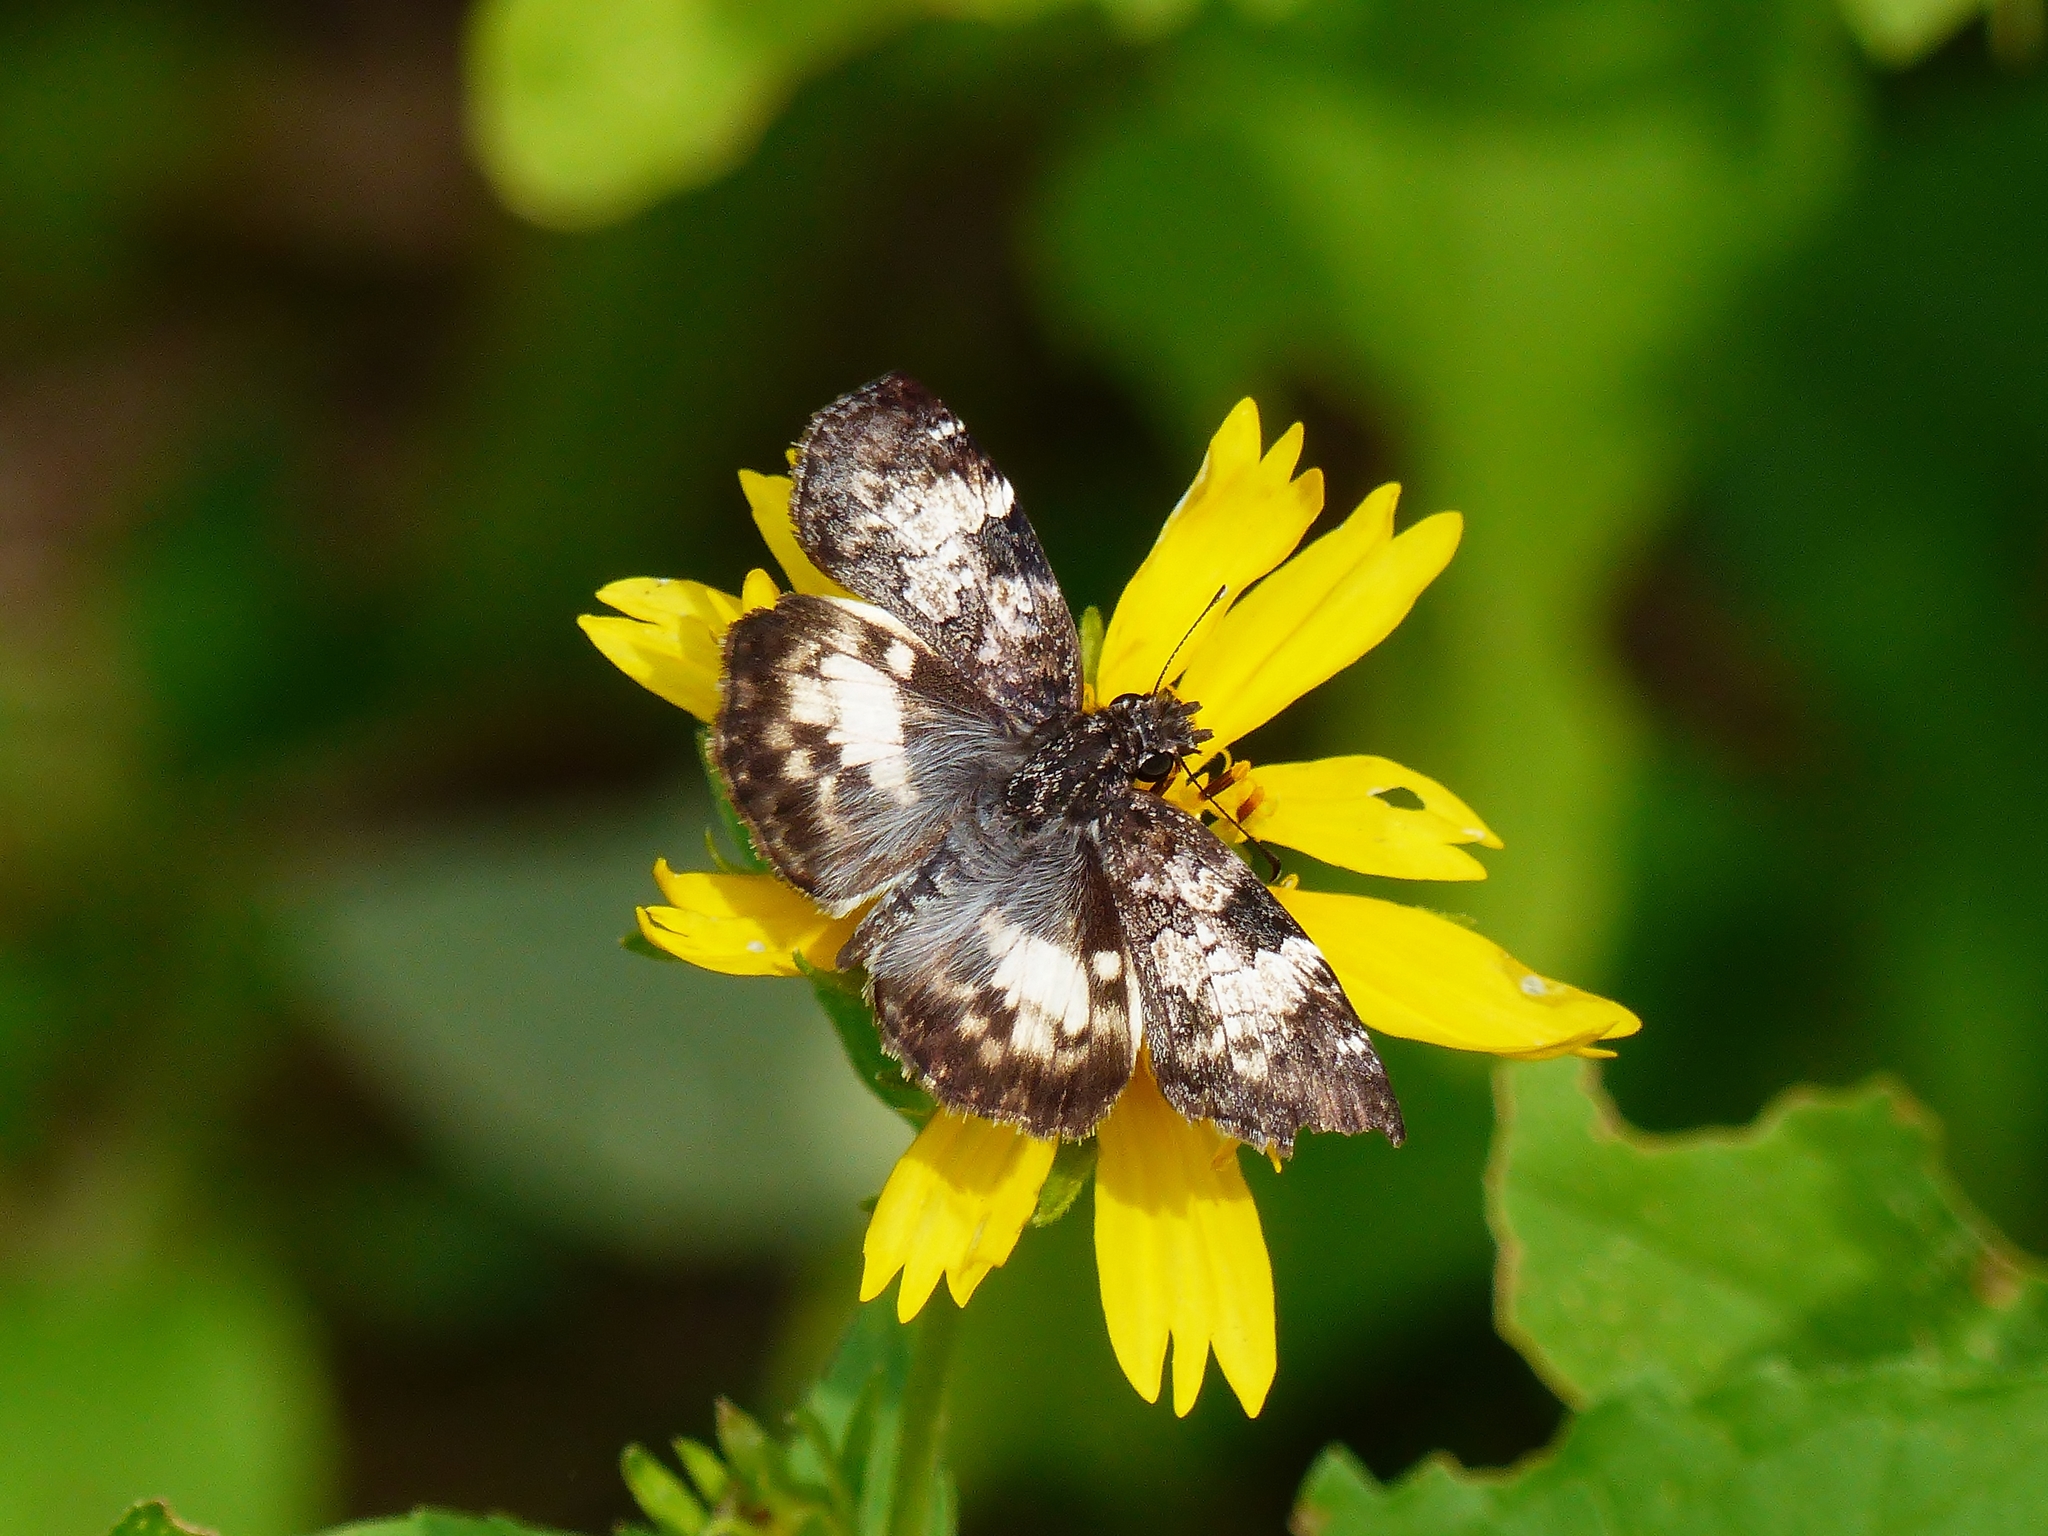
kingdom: Animalia
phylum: Arthropoda
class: Insecta
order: Lepidoptera
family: Hesperiidae
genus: Chiothion
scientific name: Chiothion georgina
